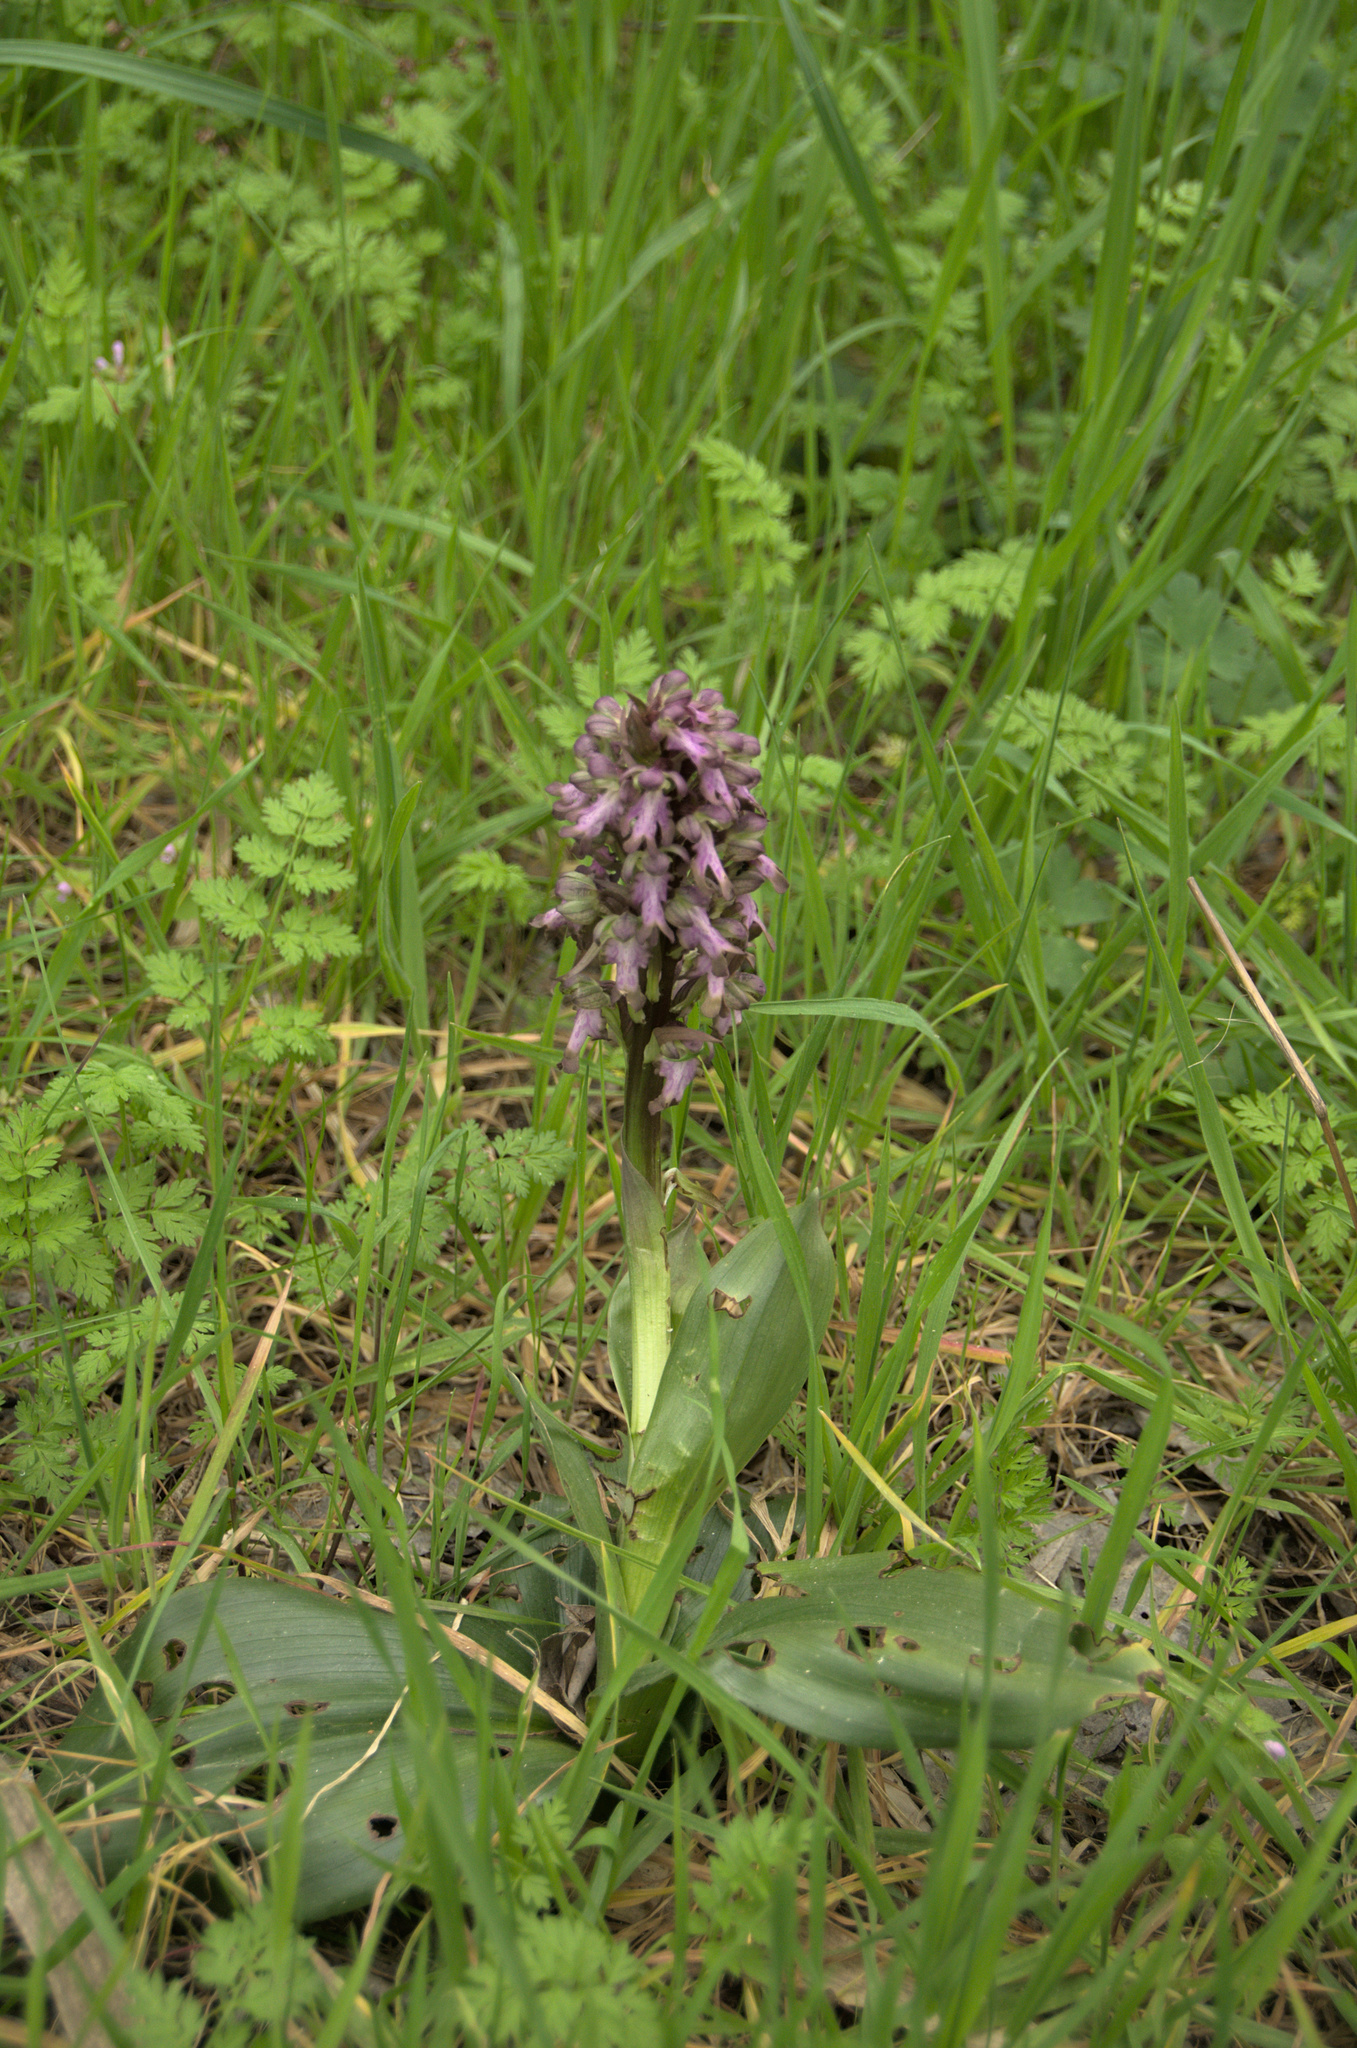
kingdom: Plantae
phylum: Tracheophyta
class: Liliopsida
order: Asparagales
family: Orchidaceae
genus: Himantoglossum
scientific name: Himantoglossum robertianum
